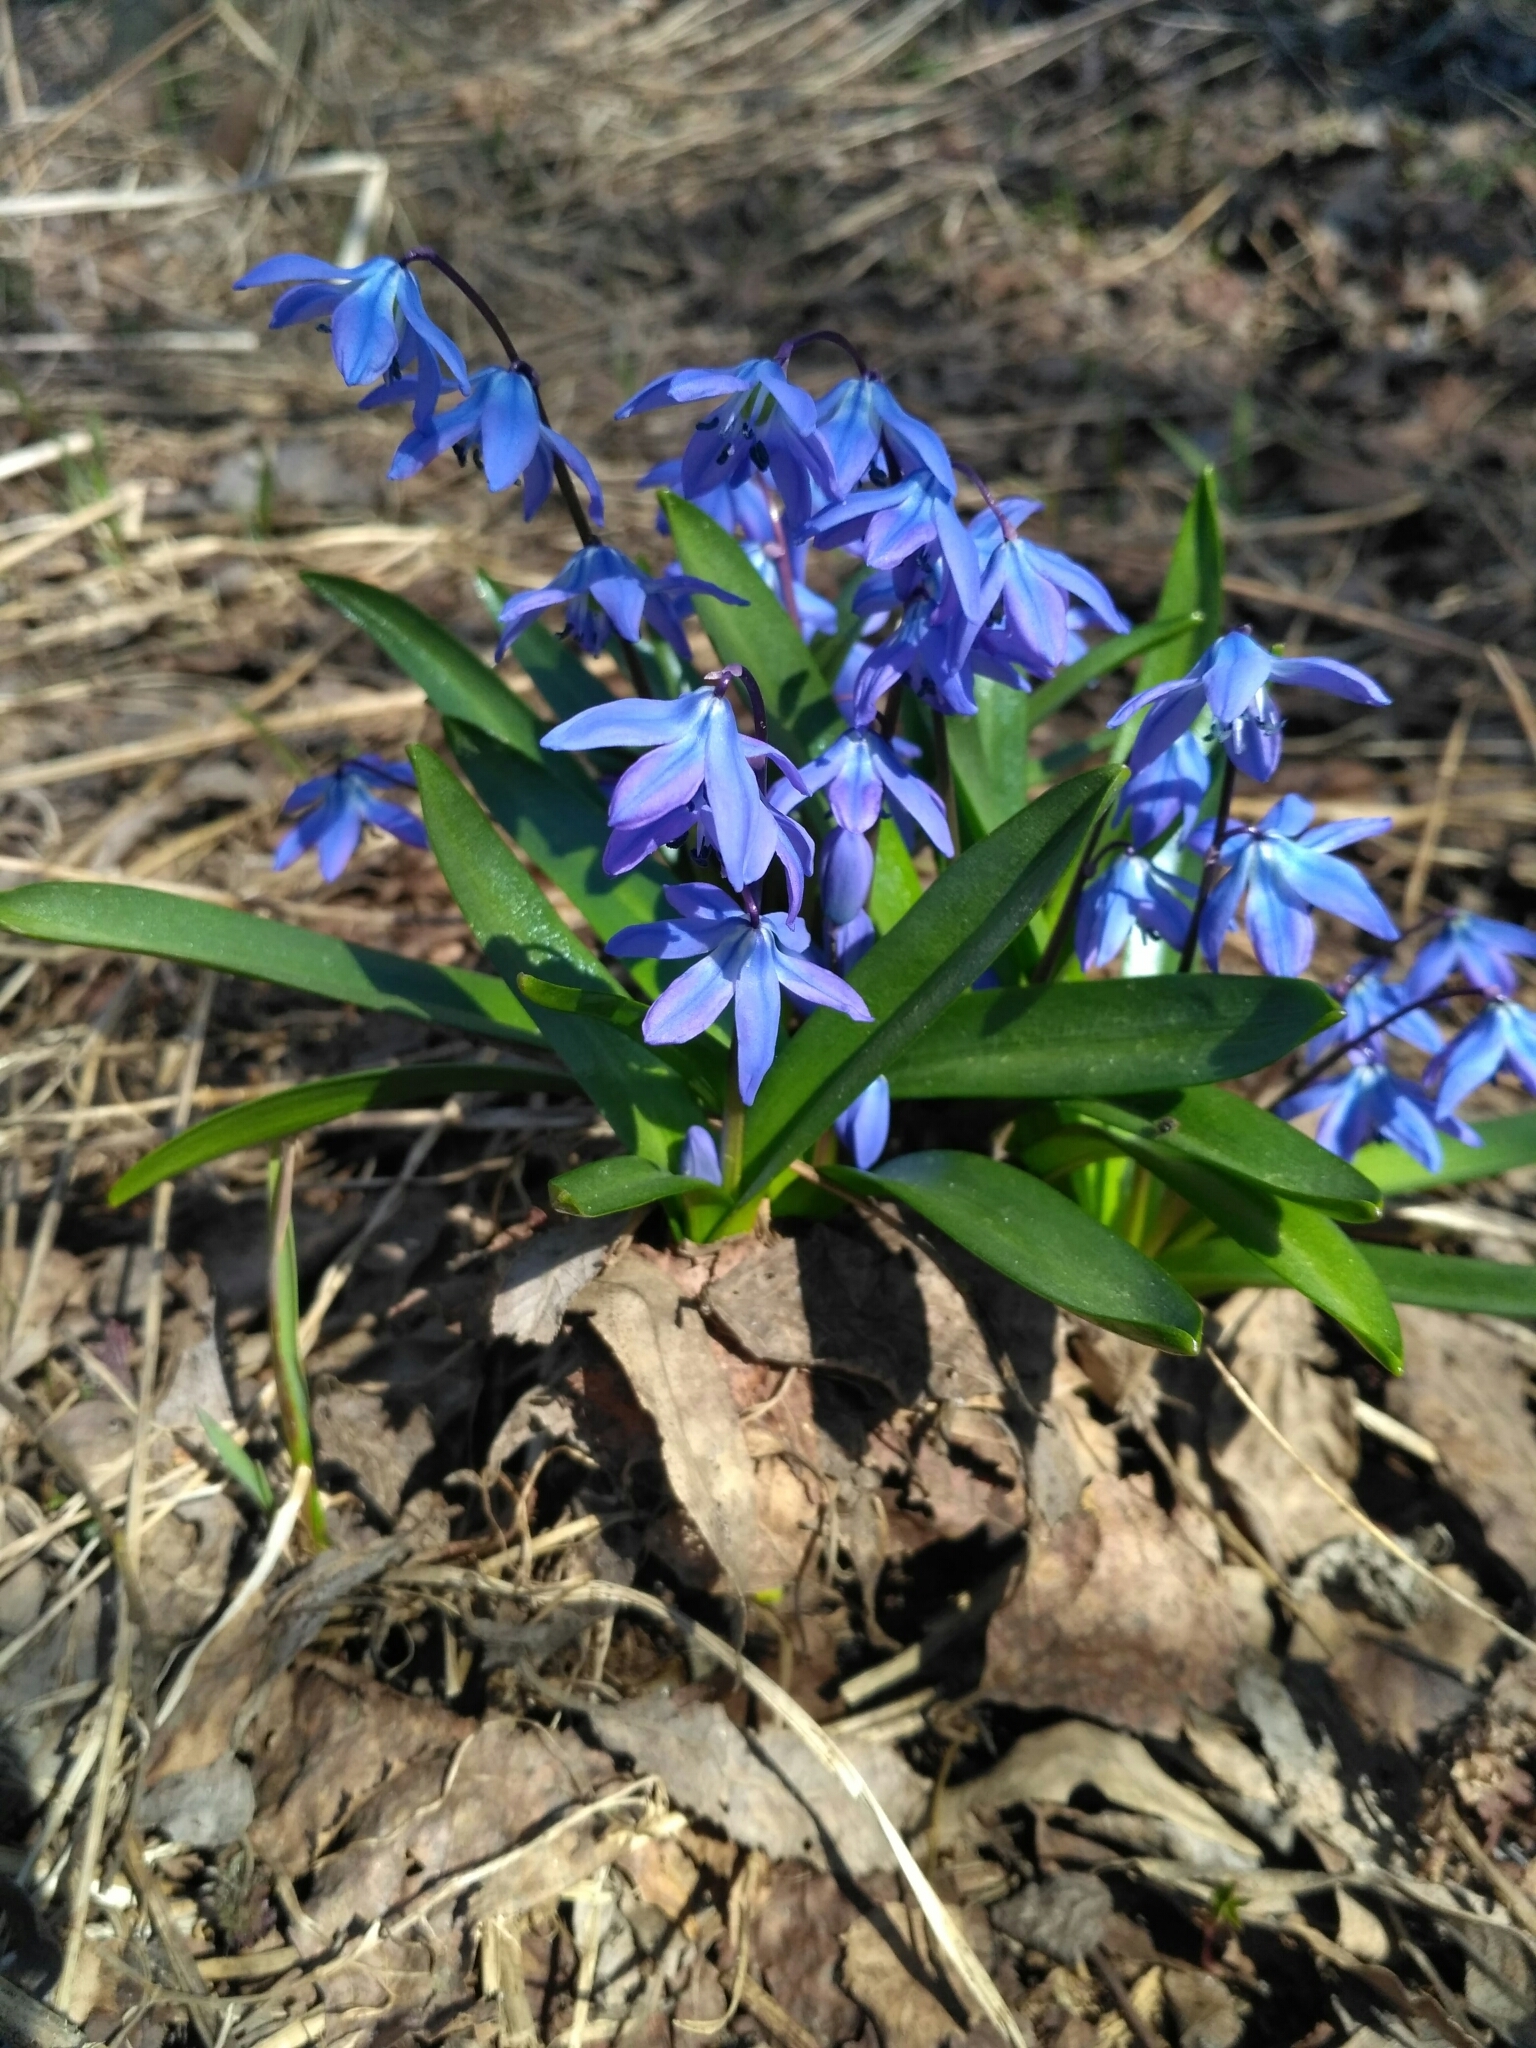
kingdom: Plantae
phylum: Tracheophyta
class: Liliopsida
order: Asparagales
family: Asparagaceae
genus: Scilla
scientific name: Scilla siberica
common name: Siberian squill
